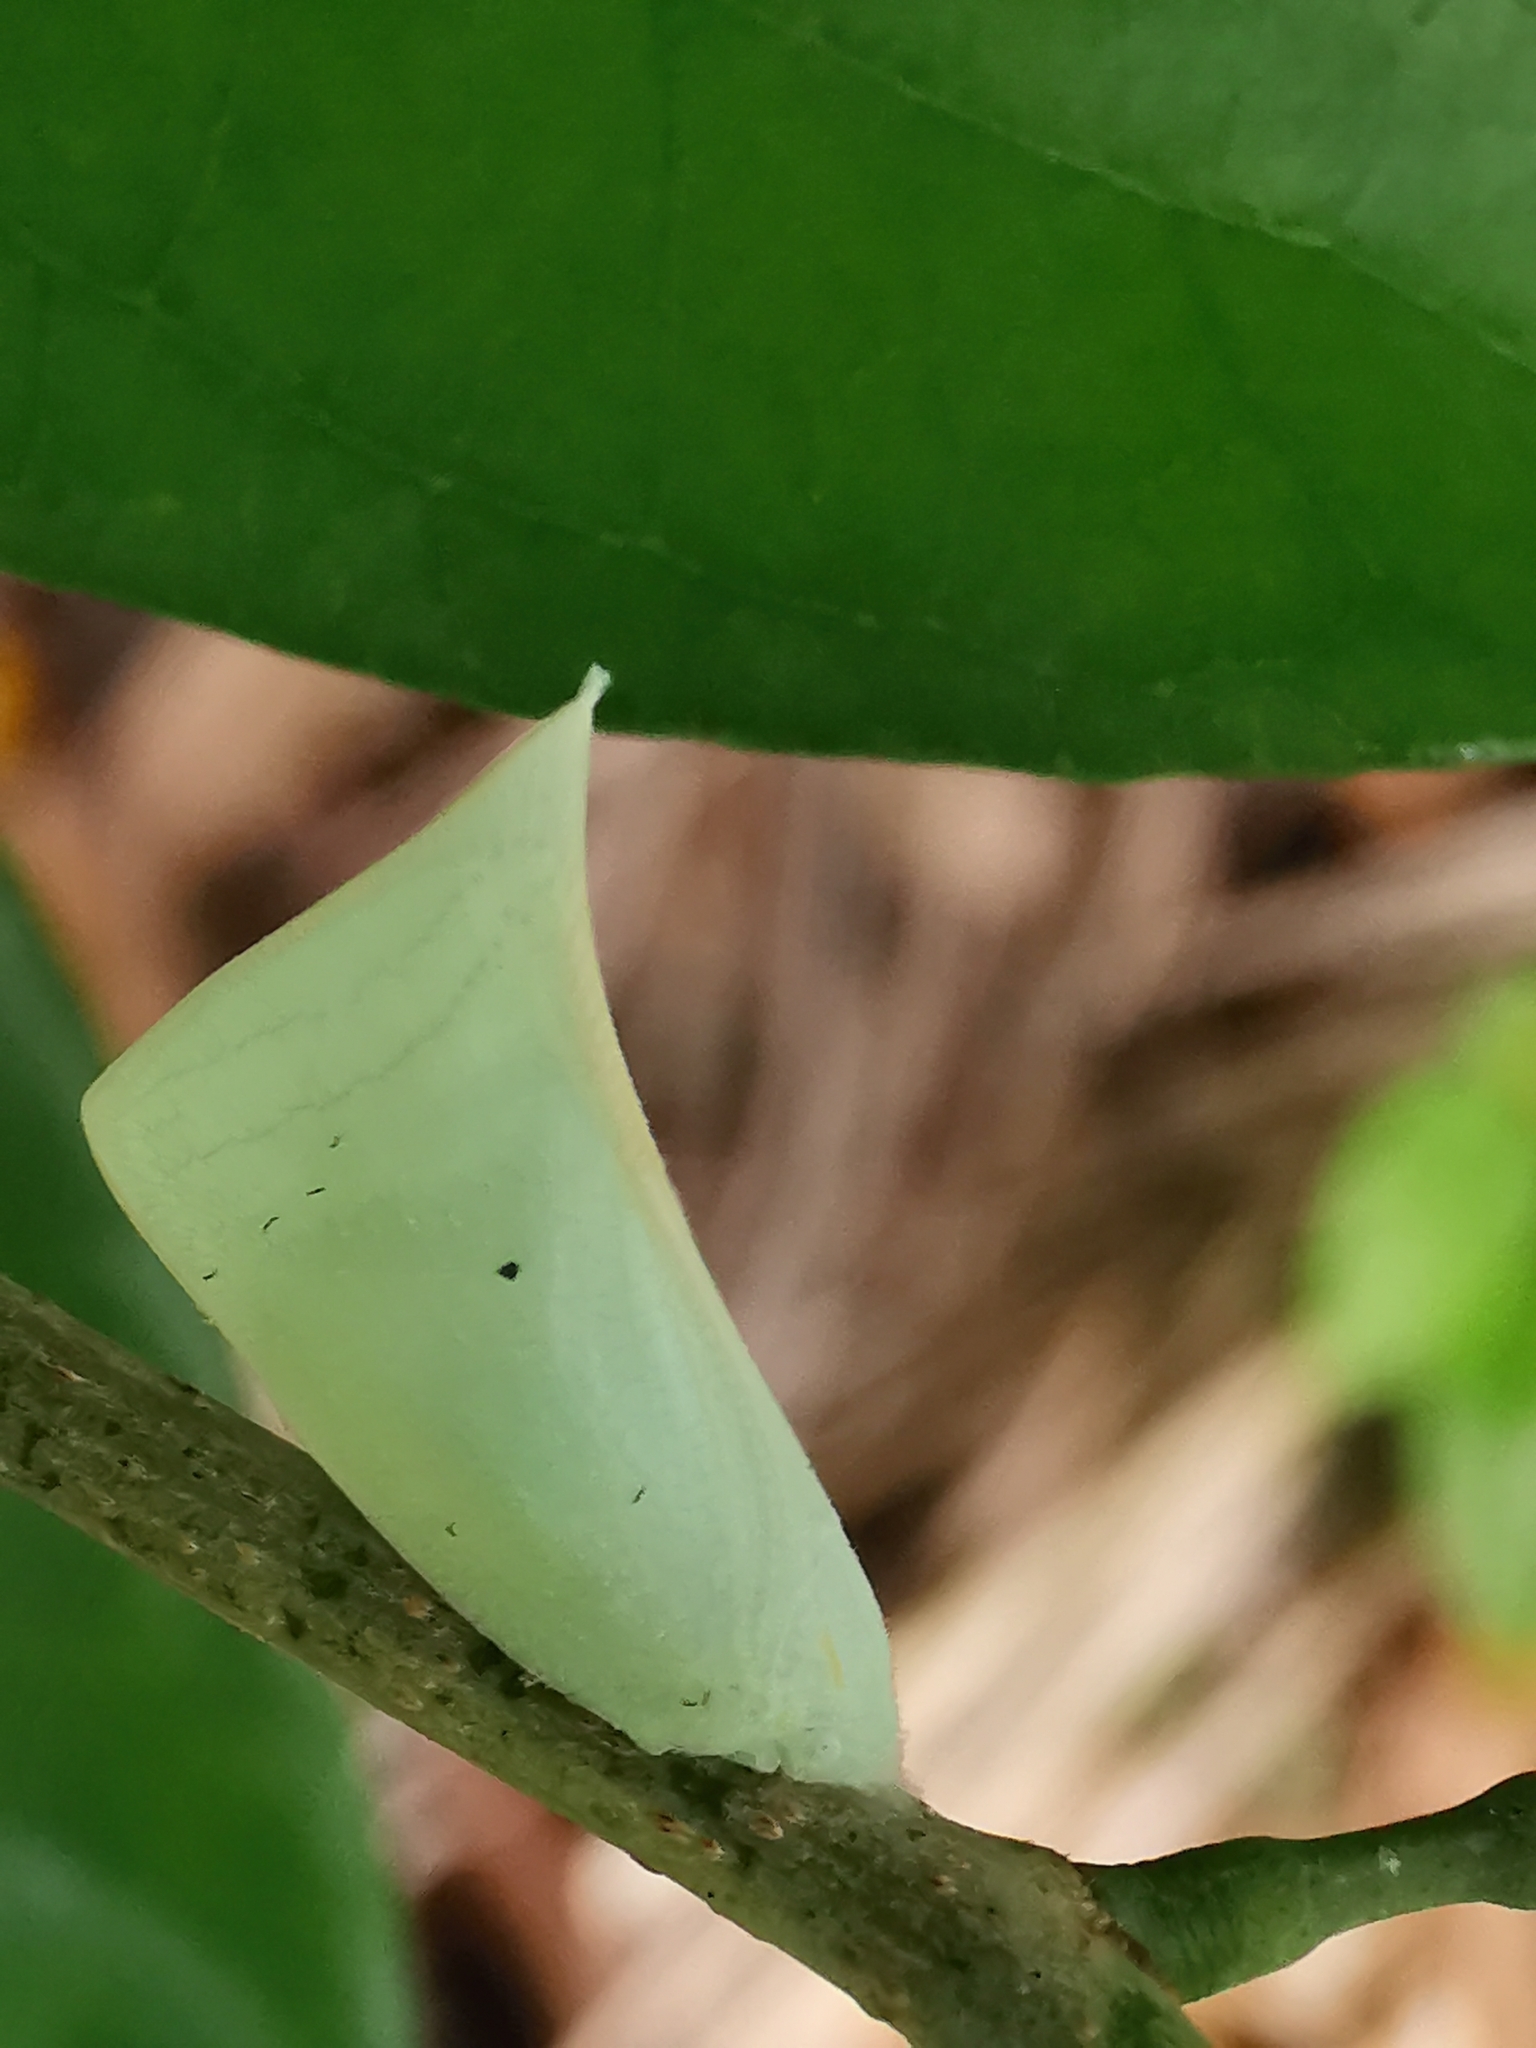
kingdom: Animalia
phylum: Arthropoda
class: Insecta
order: Hemiptera
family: Flatidae
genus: Lawana
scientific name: Lawana adscendens
